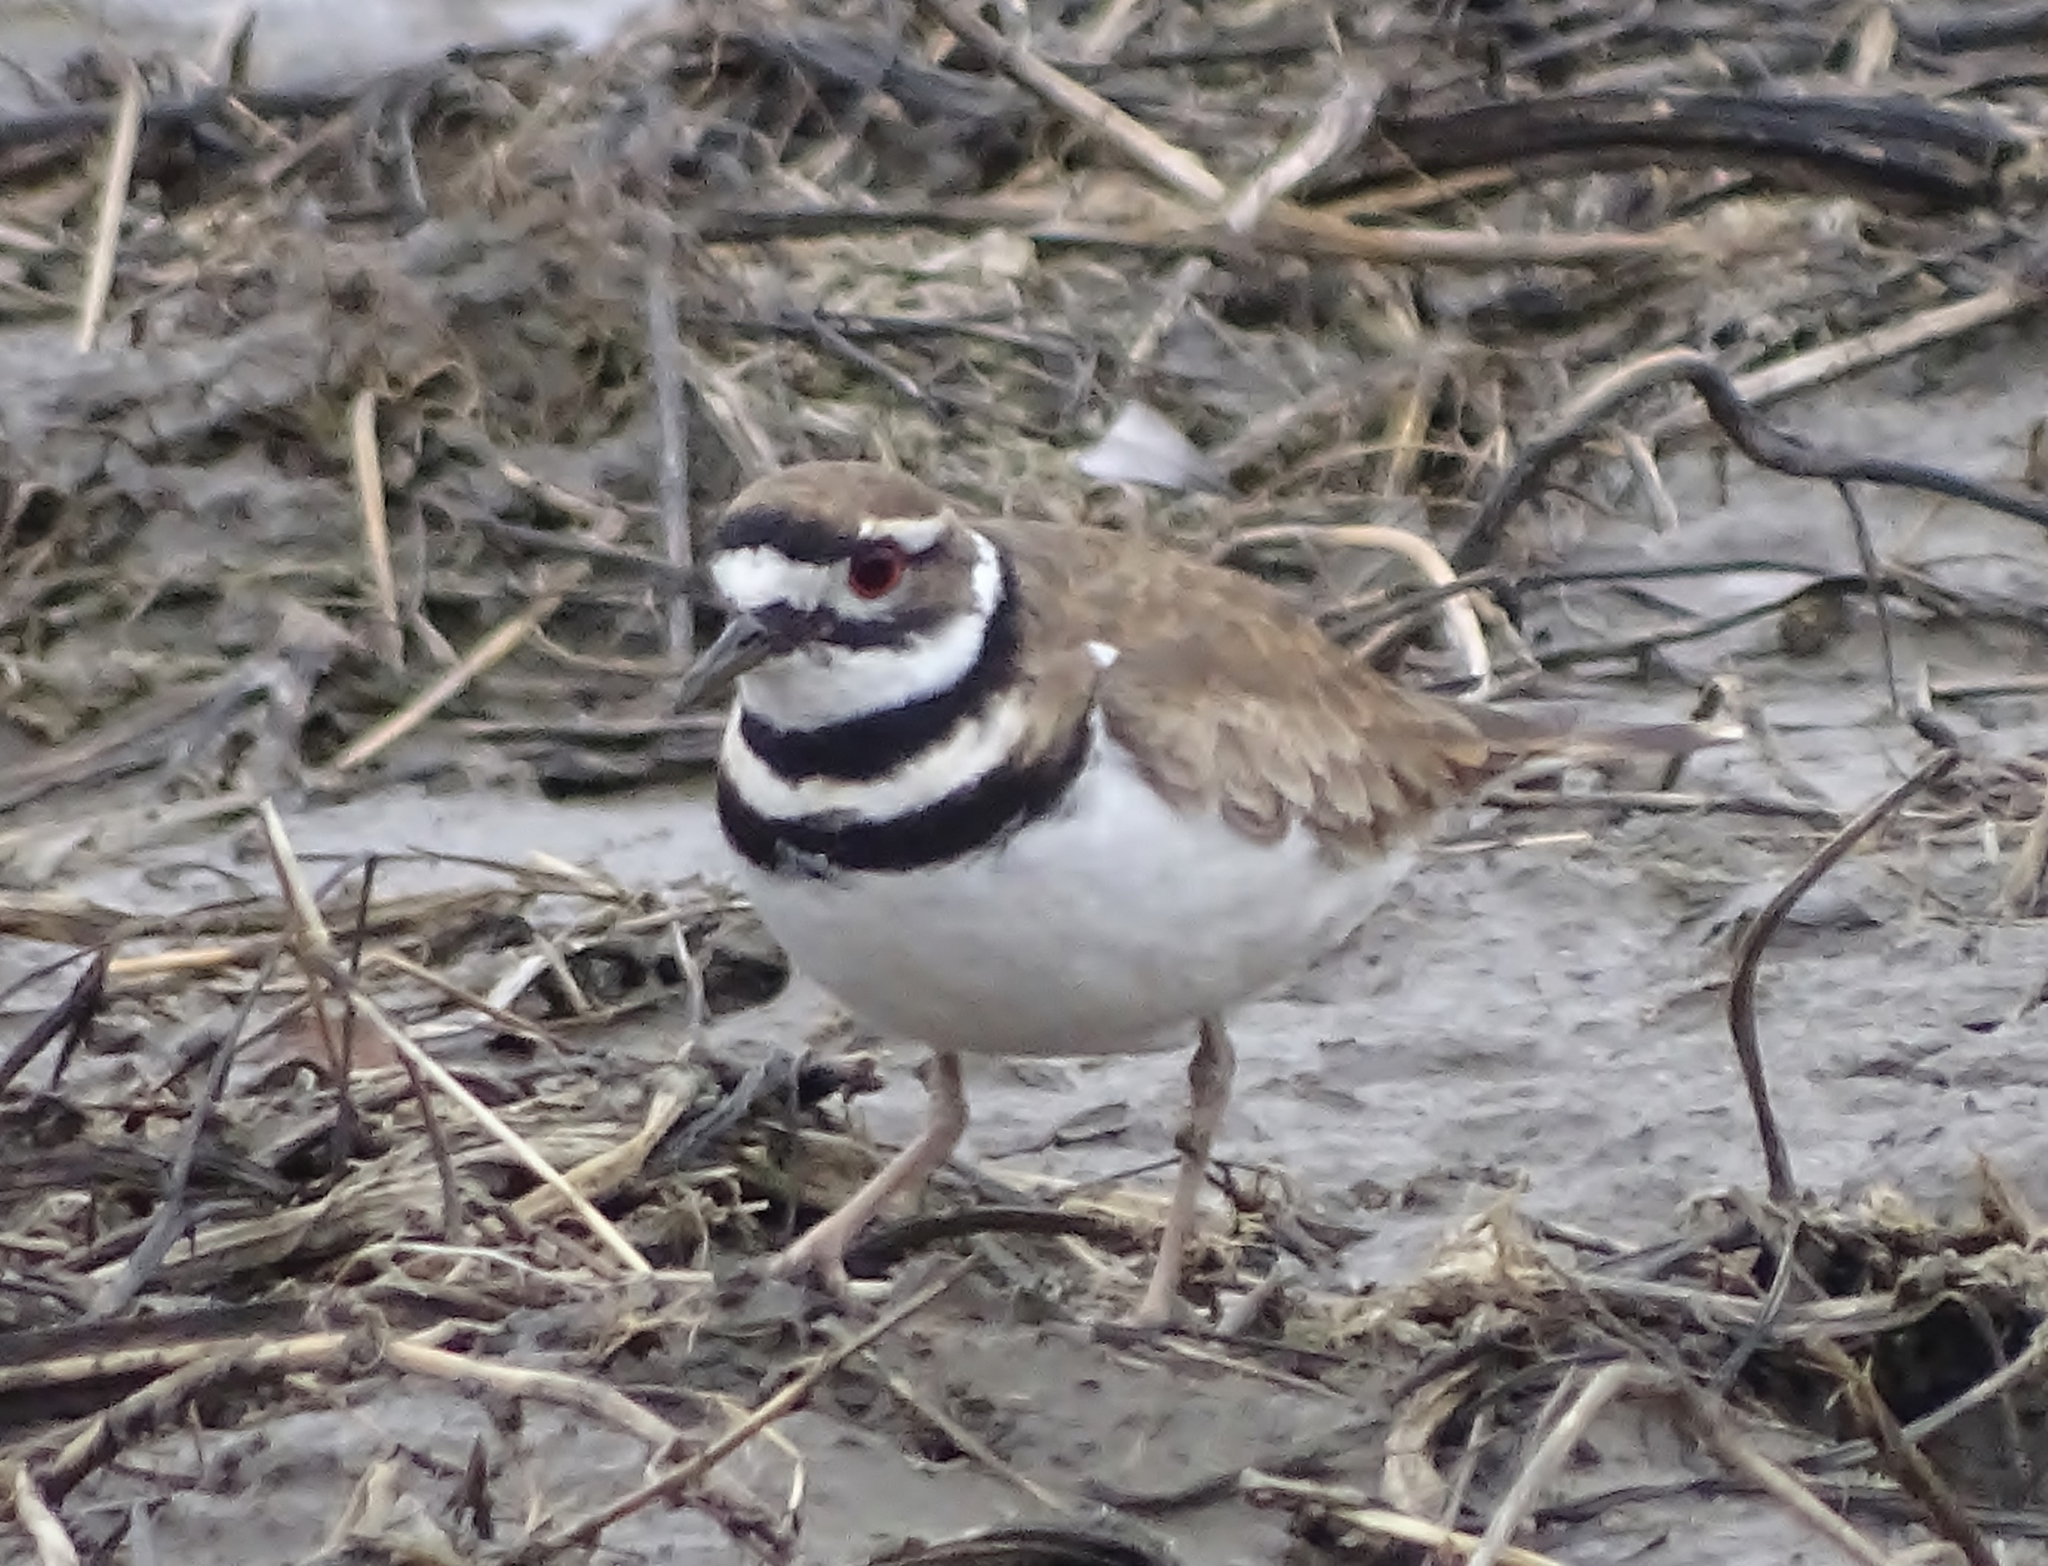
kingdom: Animalia
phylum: Chordata
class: Aves
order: Charadriiformes
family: Charadriidae
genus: Charadrius
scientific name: Charadrius vociferus
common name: Killdeer
